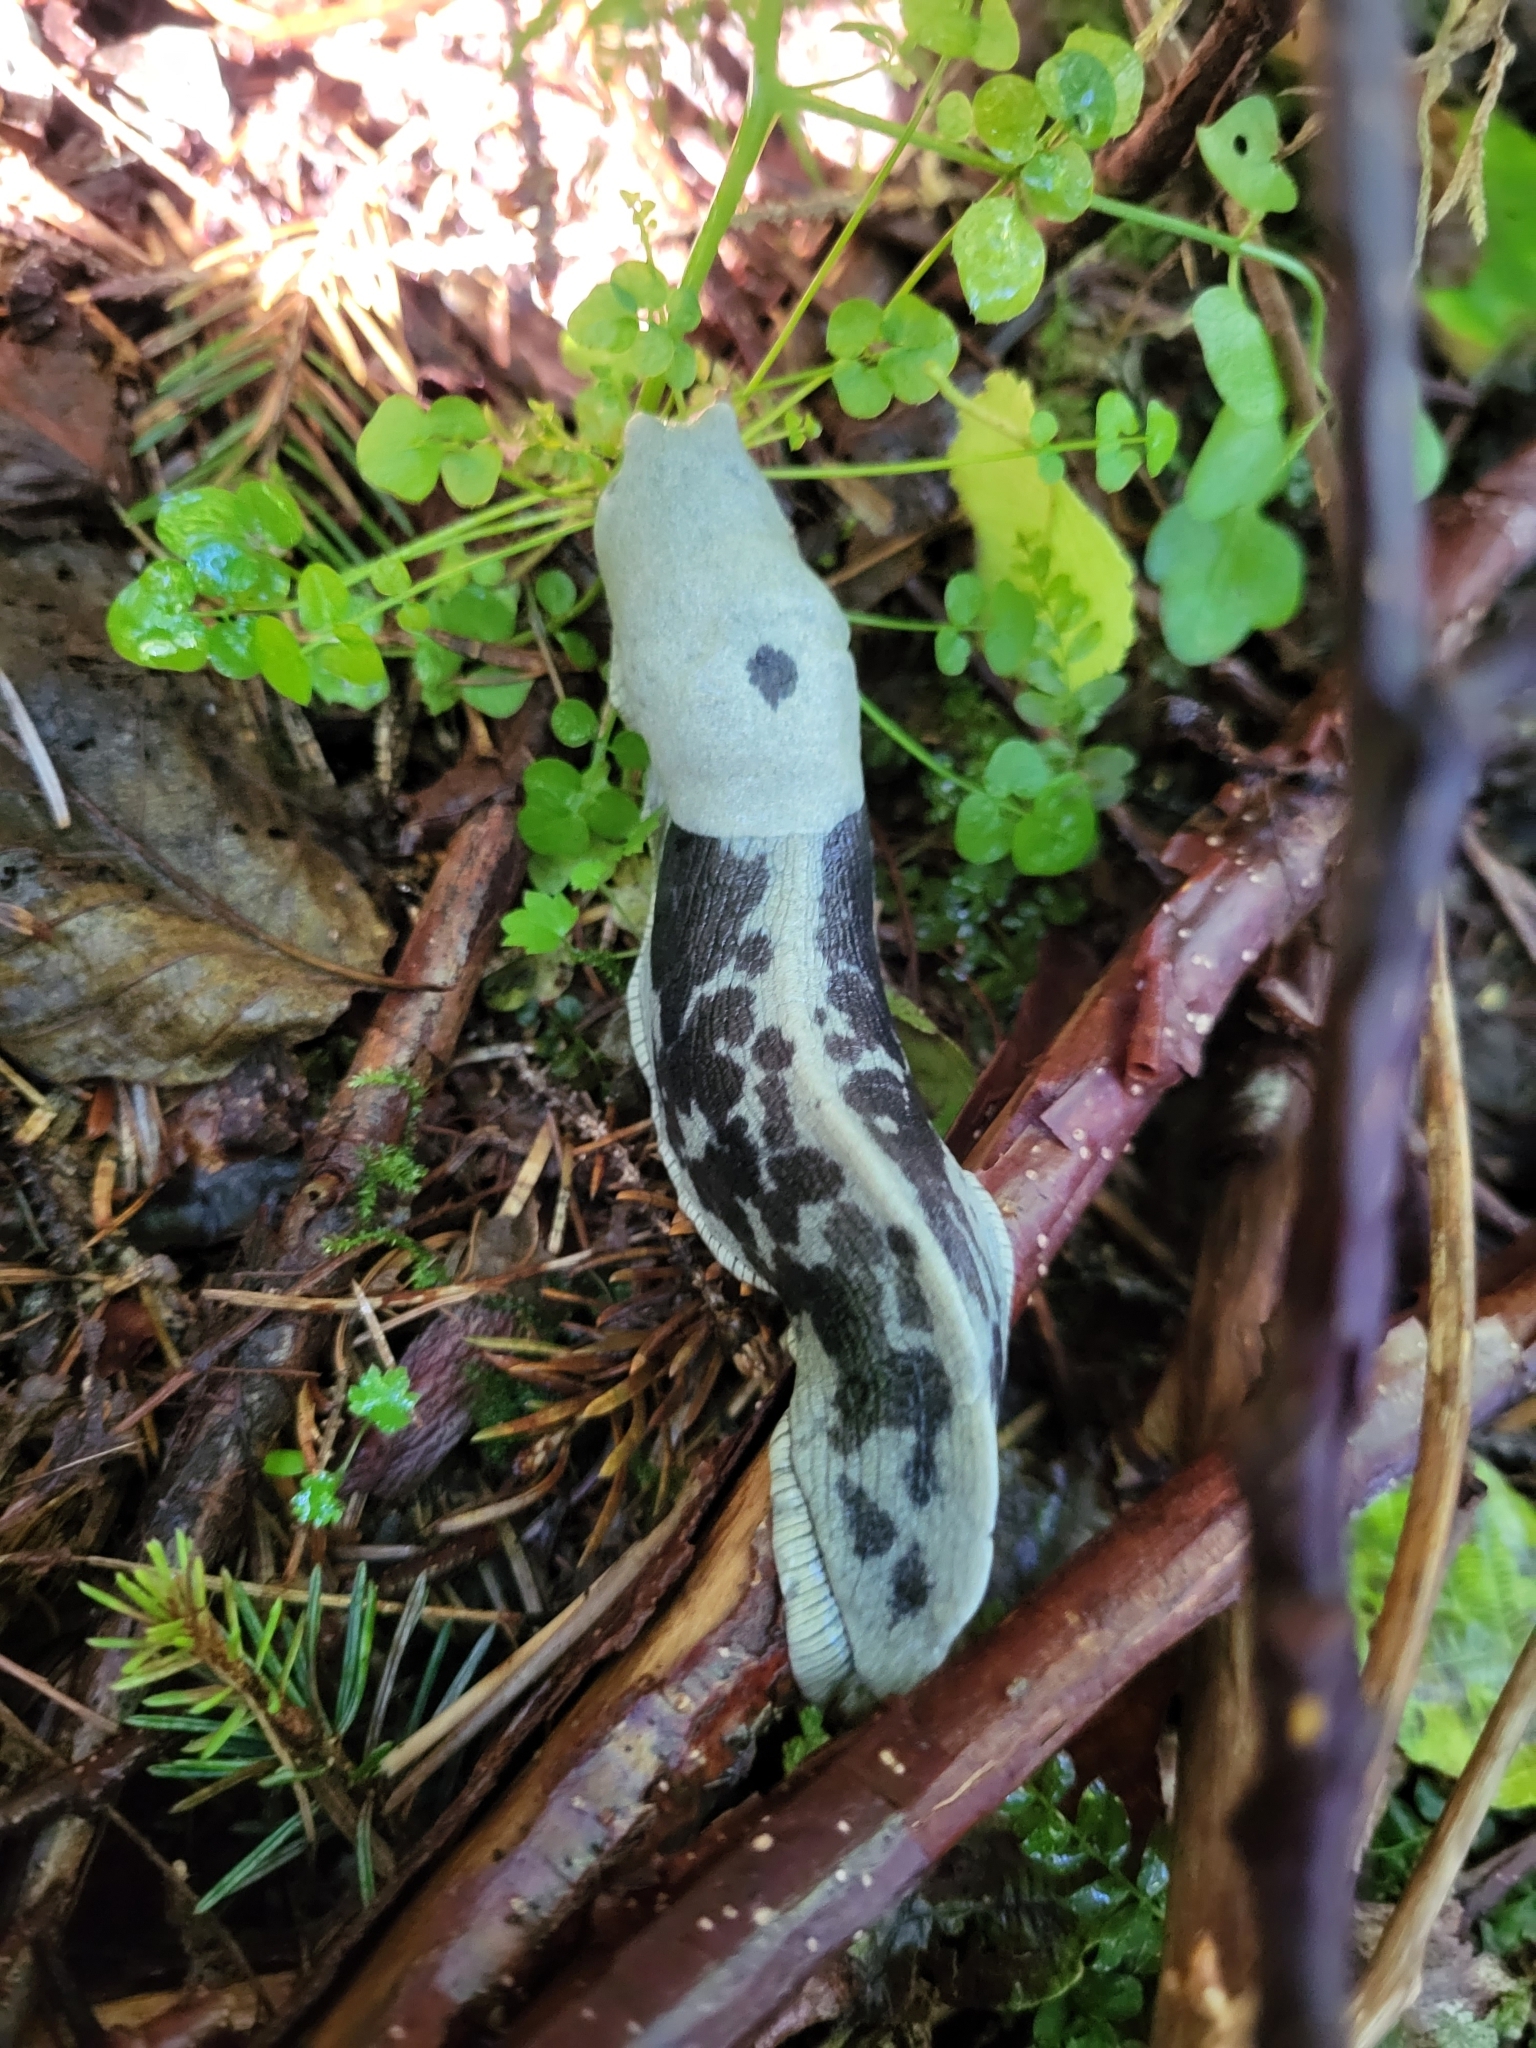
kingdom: Animalia
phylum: Mollusca
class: Gastropoda
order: Stylommatophora
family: Ariolimacidae
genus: Ariolimax
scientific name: Ariolimax columbianus
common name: Pacific banana slug
